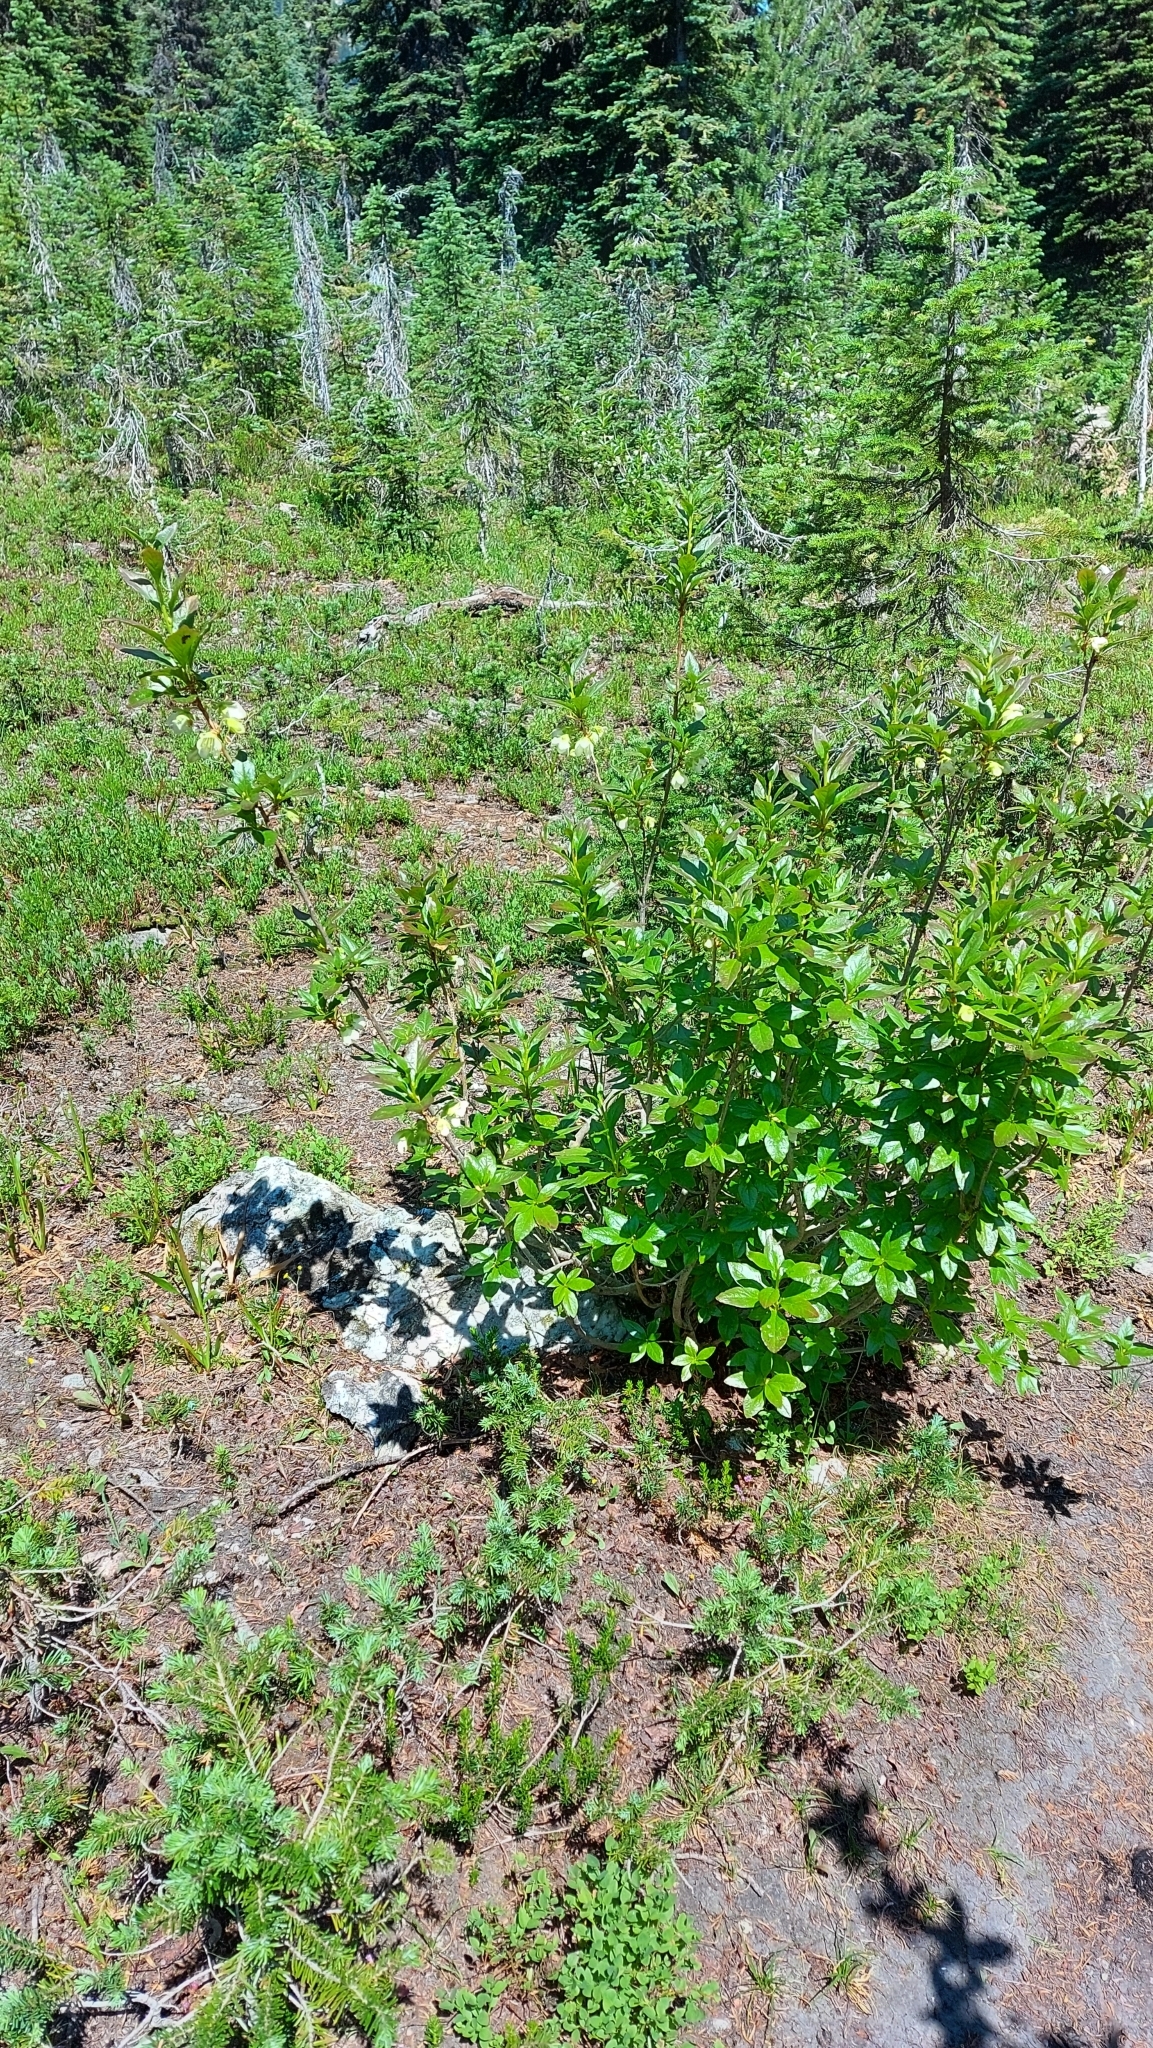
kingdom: Plantae
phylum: Tracheophyta
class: Magnoliopsida
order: Ericales
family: Ericaceae
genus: Rhododendron
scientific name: Rhododendron albiflorum
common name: White rhododendron
